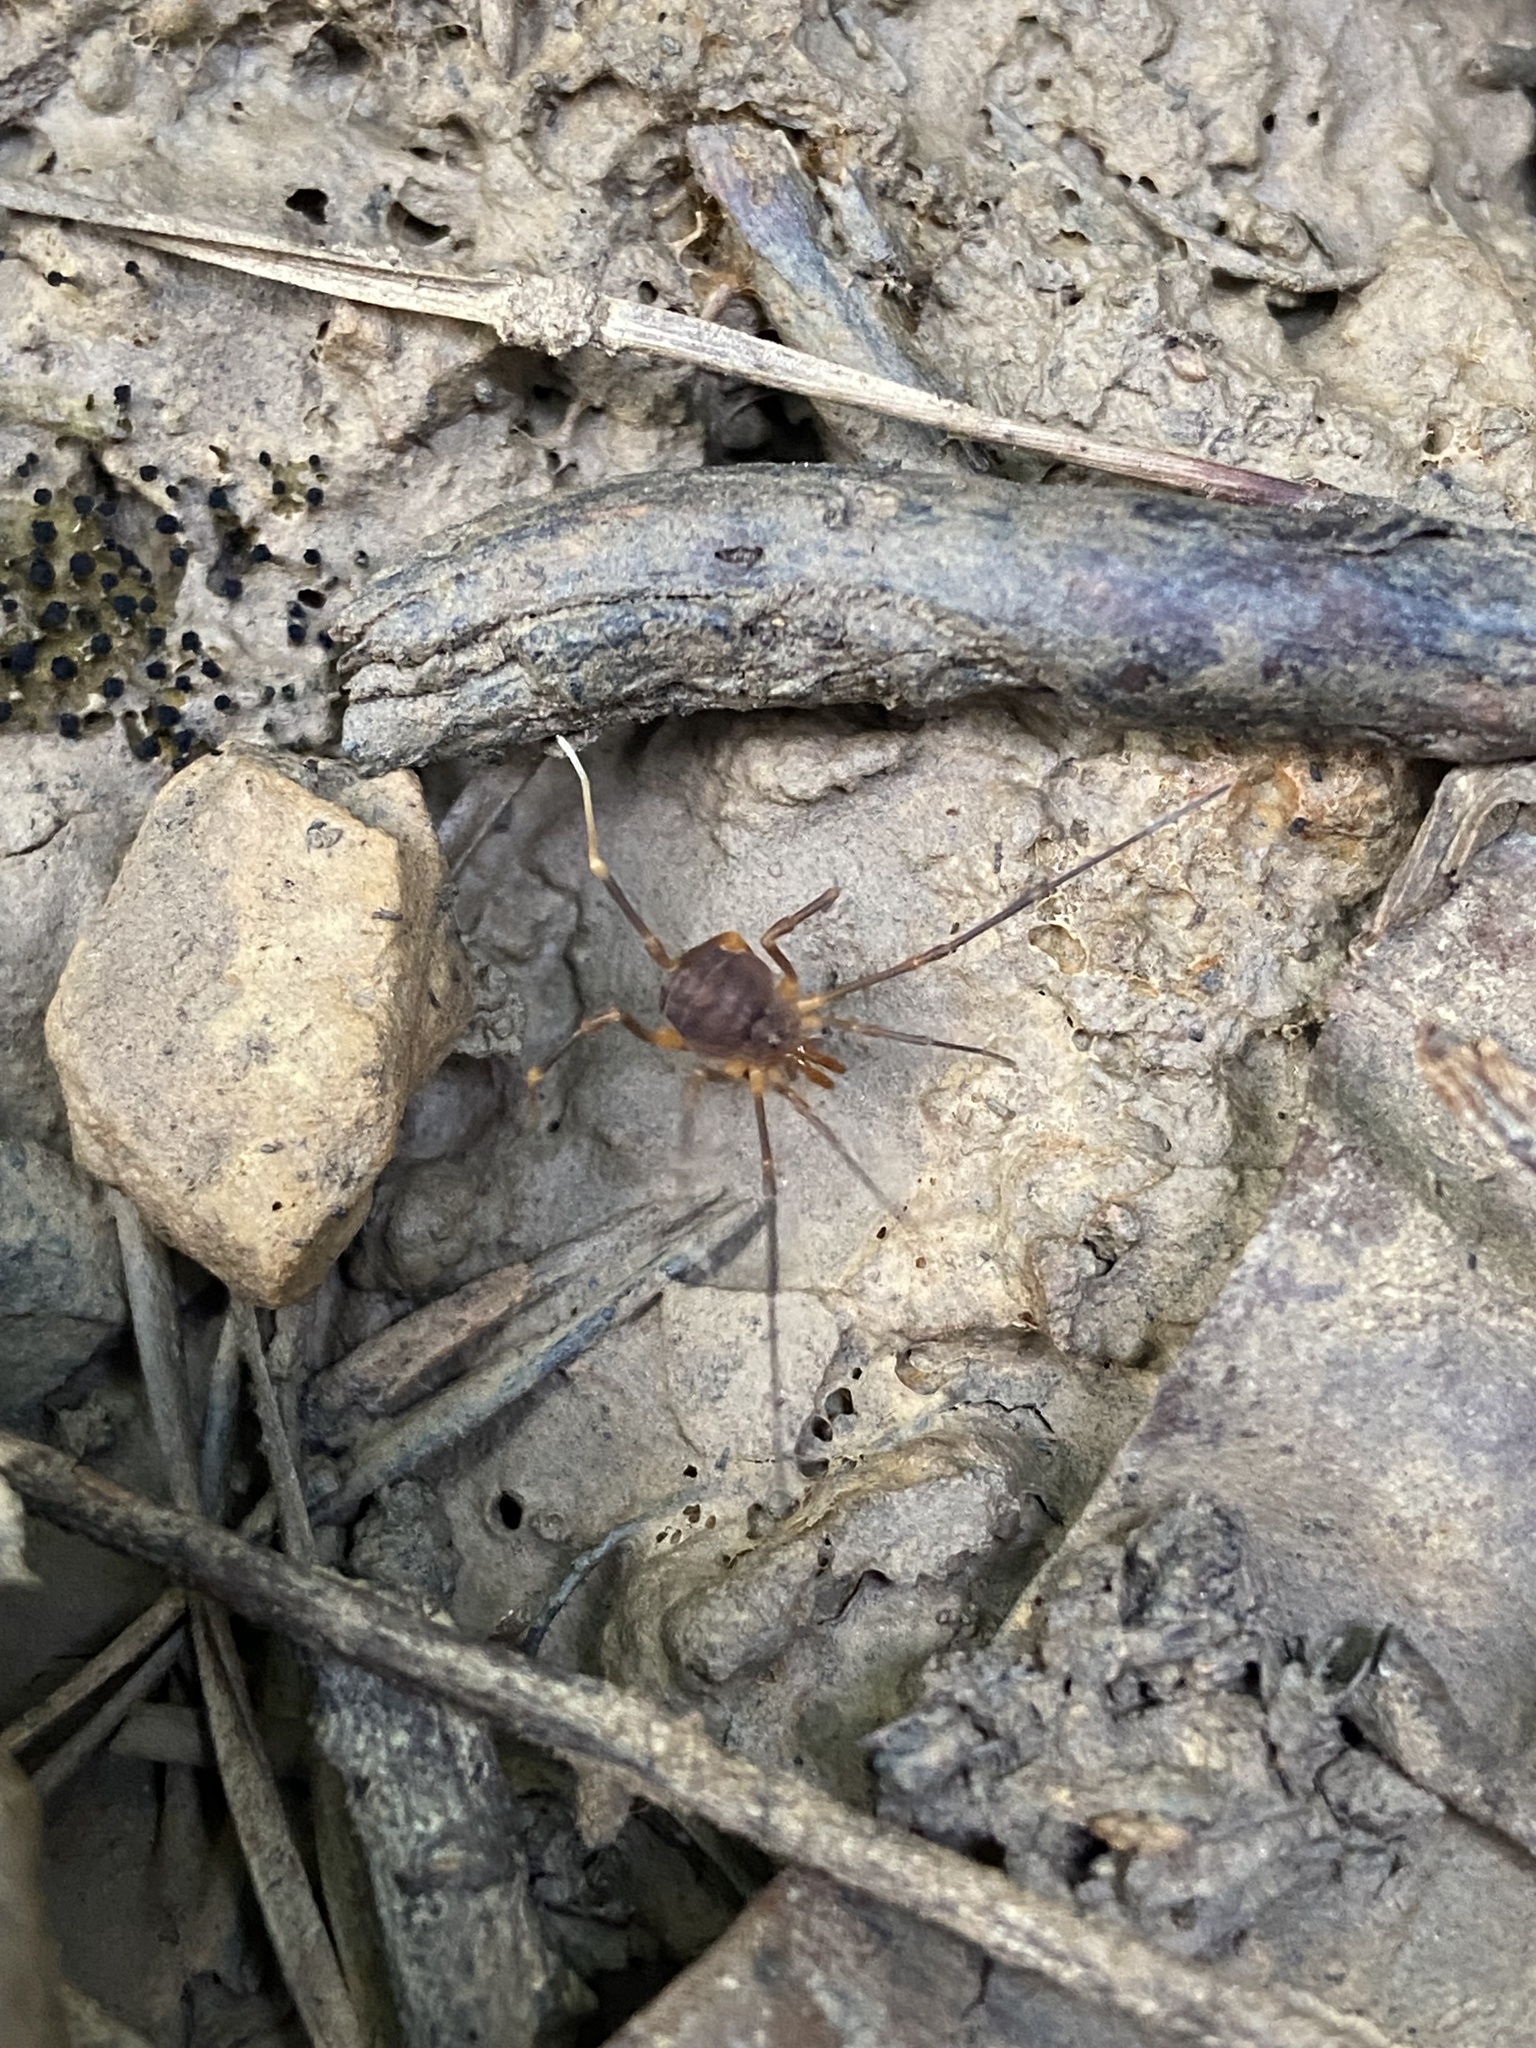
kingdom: Animalia
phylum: Arthropoda
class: Arachnida
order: Opiliones
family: Cosmetidae
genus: Libitioides
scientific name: Libitioides sayi
